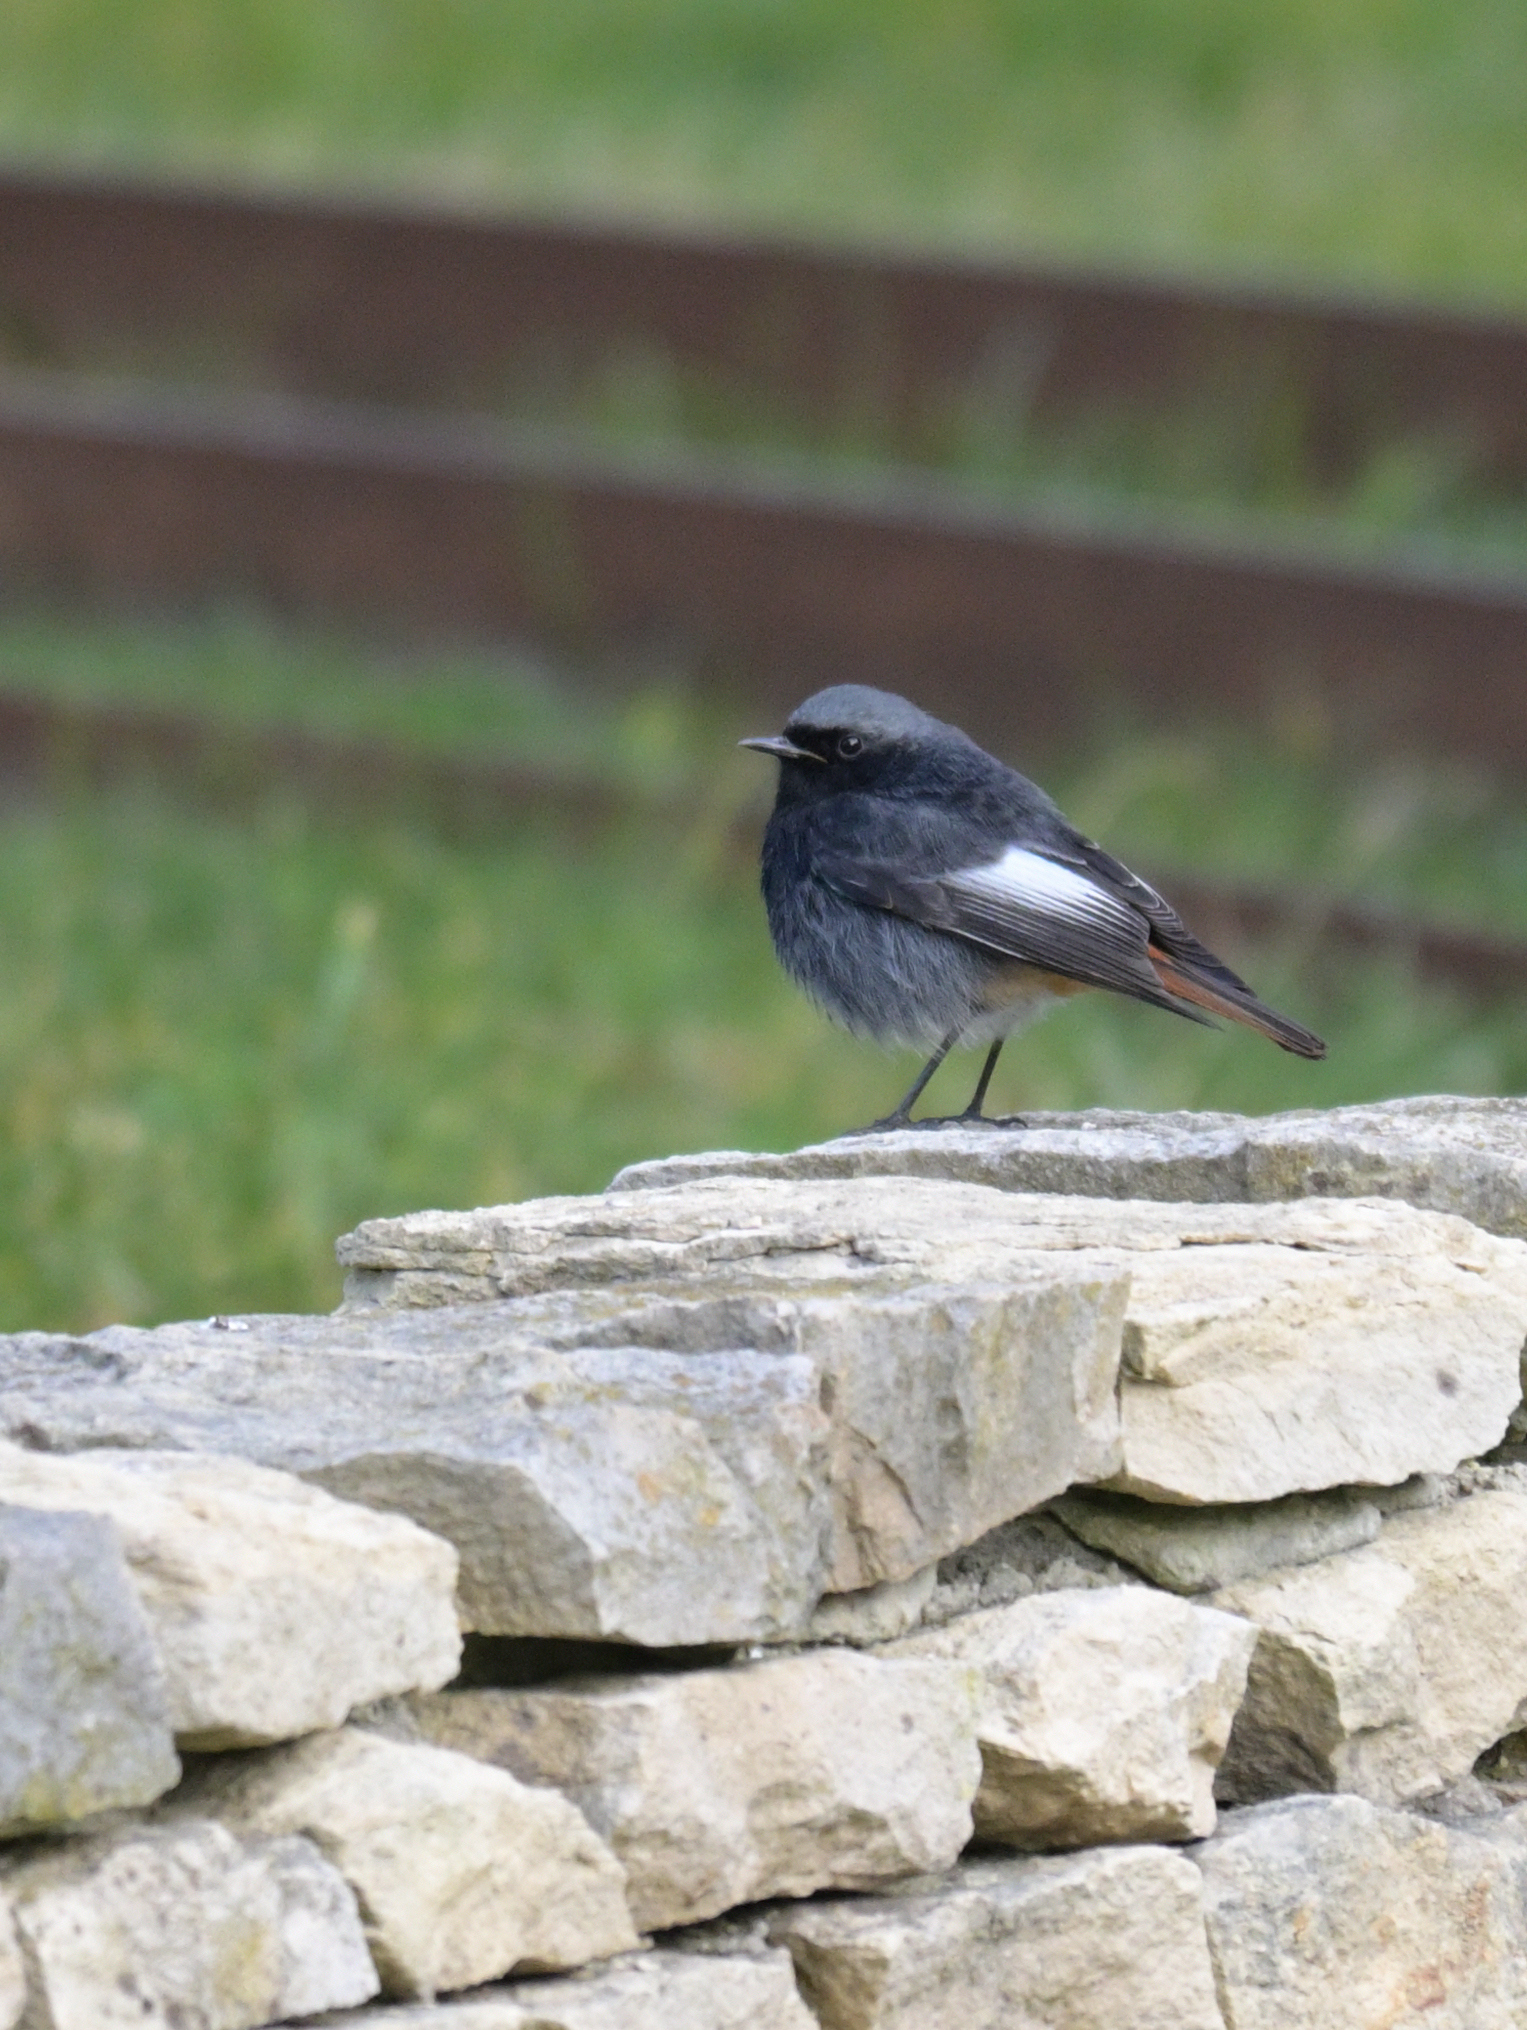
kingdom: Animalia
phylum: Chordata
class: Aves
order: Passeriformes
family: Muscicapidae
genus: Phoenicurus
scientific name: Phoenicurus ochruros
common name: Black redstart
